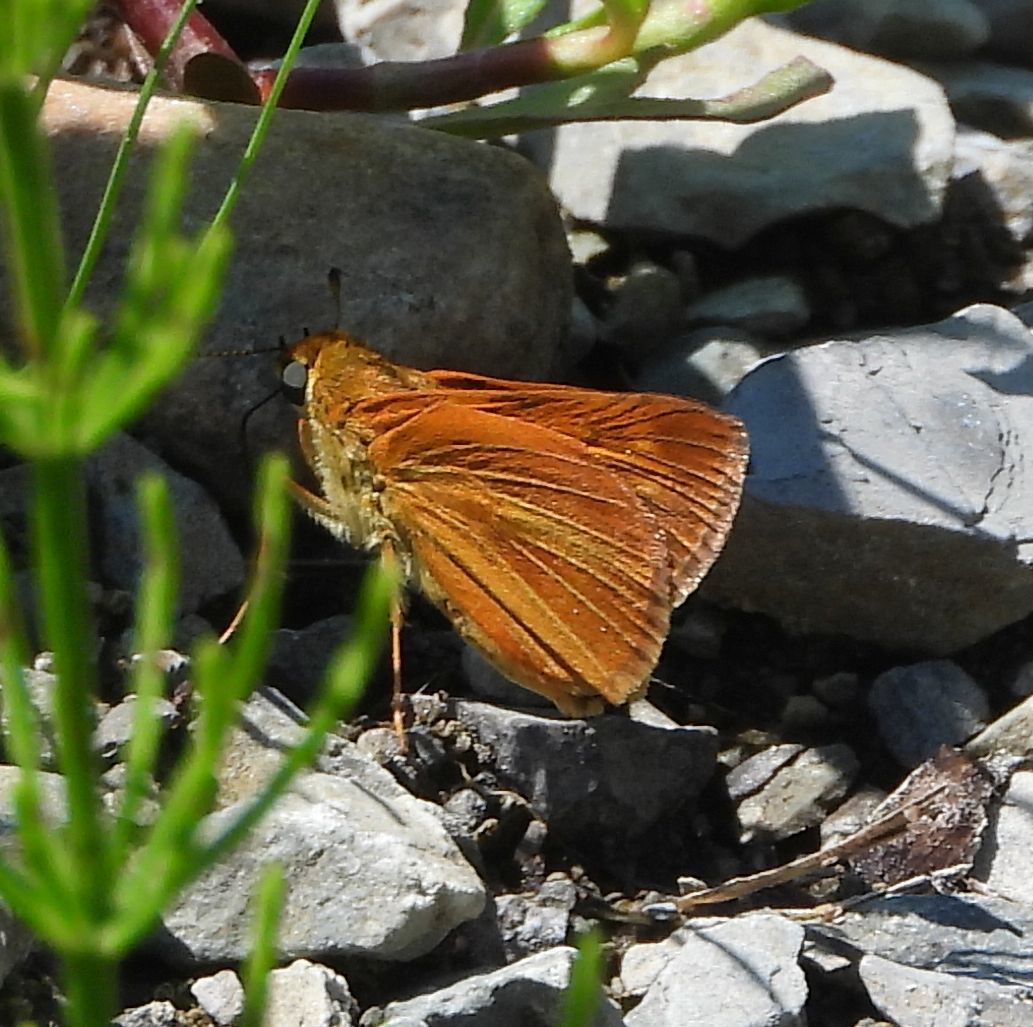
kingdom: Animalia
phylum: Arthropoda
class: Insecta
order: Lepidoptera
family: Hesperiidae
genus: Euphyes
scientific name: Euphyes dion
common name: Dion skipper
